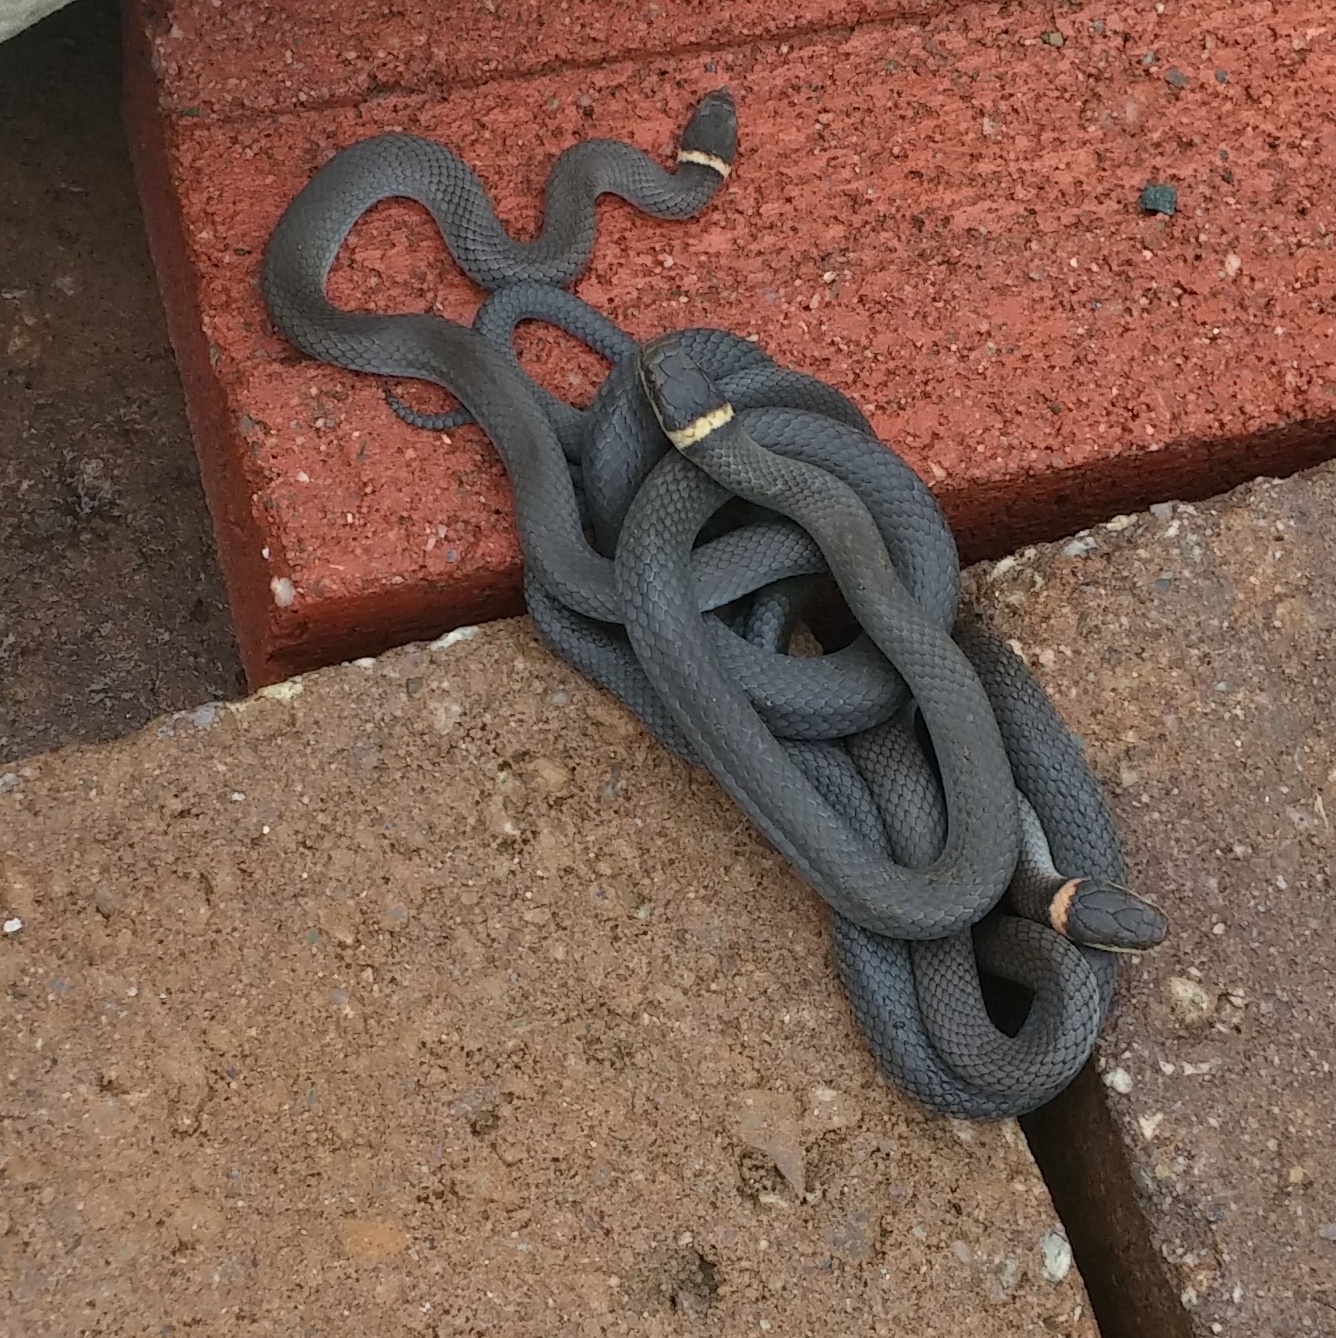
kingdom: Animalia
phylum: Chordata
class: Squamata
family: Colubridae
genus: Diadophis
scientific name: Diadophis punctatus
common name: Ringneck snake
